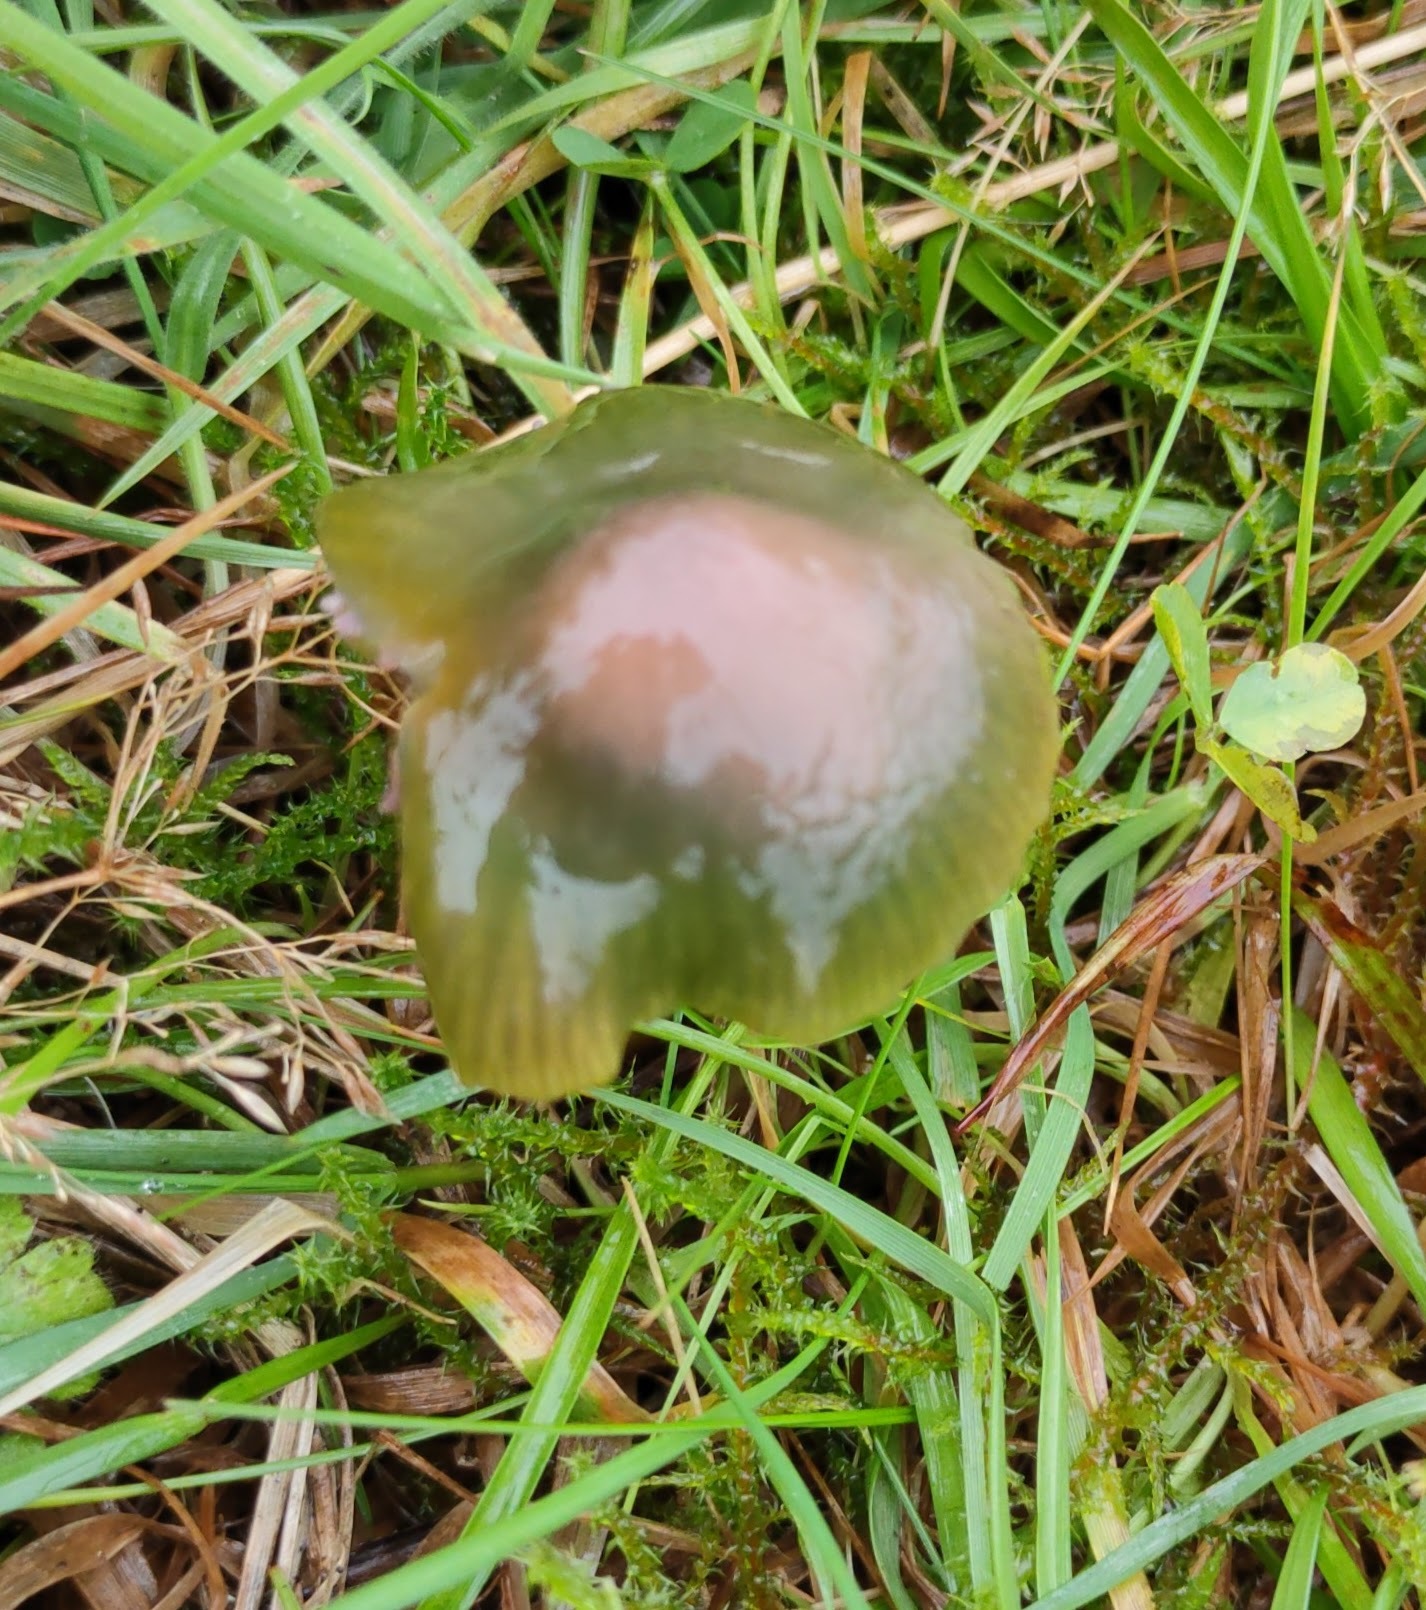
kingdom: Fungi
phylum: Basidiomycota
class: Agaricomycetes
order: Agaricales
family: Hygrophoraceae
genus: Gliophorus
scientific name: Gliophorus psittacinus
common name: Parrot wax-cap
